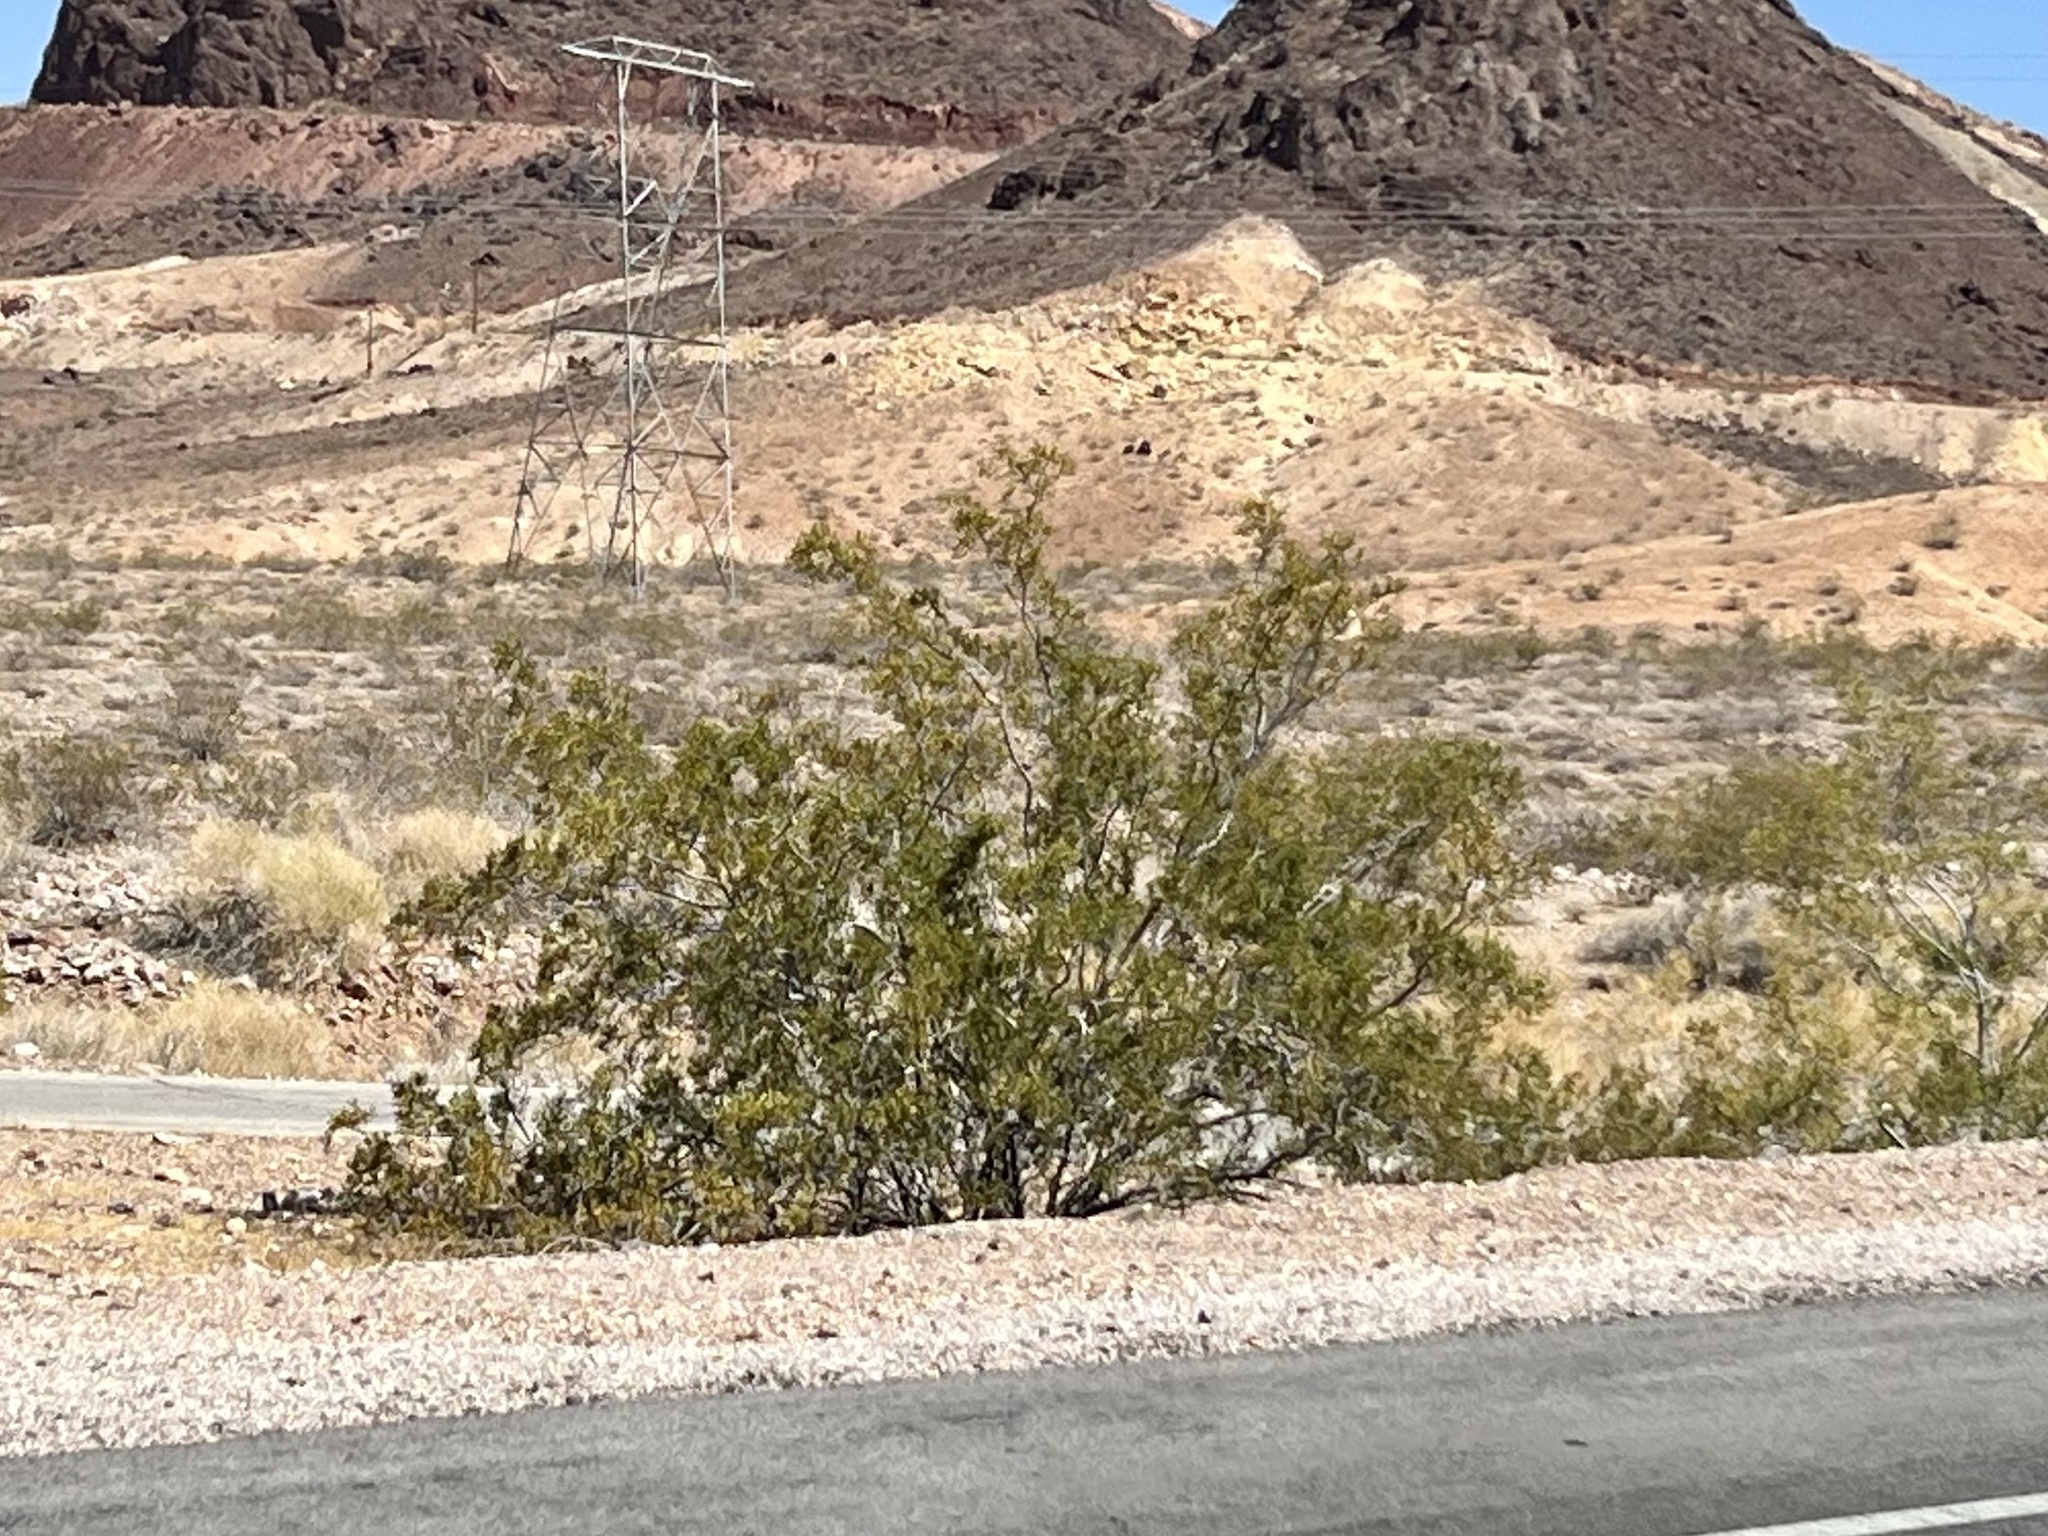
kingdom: Plantae
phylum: Tracheophyta
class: Magnoliopsida
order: Zygophyllales
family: Zygophyllaceae
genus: Larrea
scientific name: Larrea tridentata
